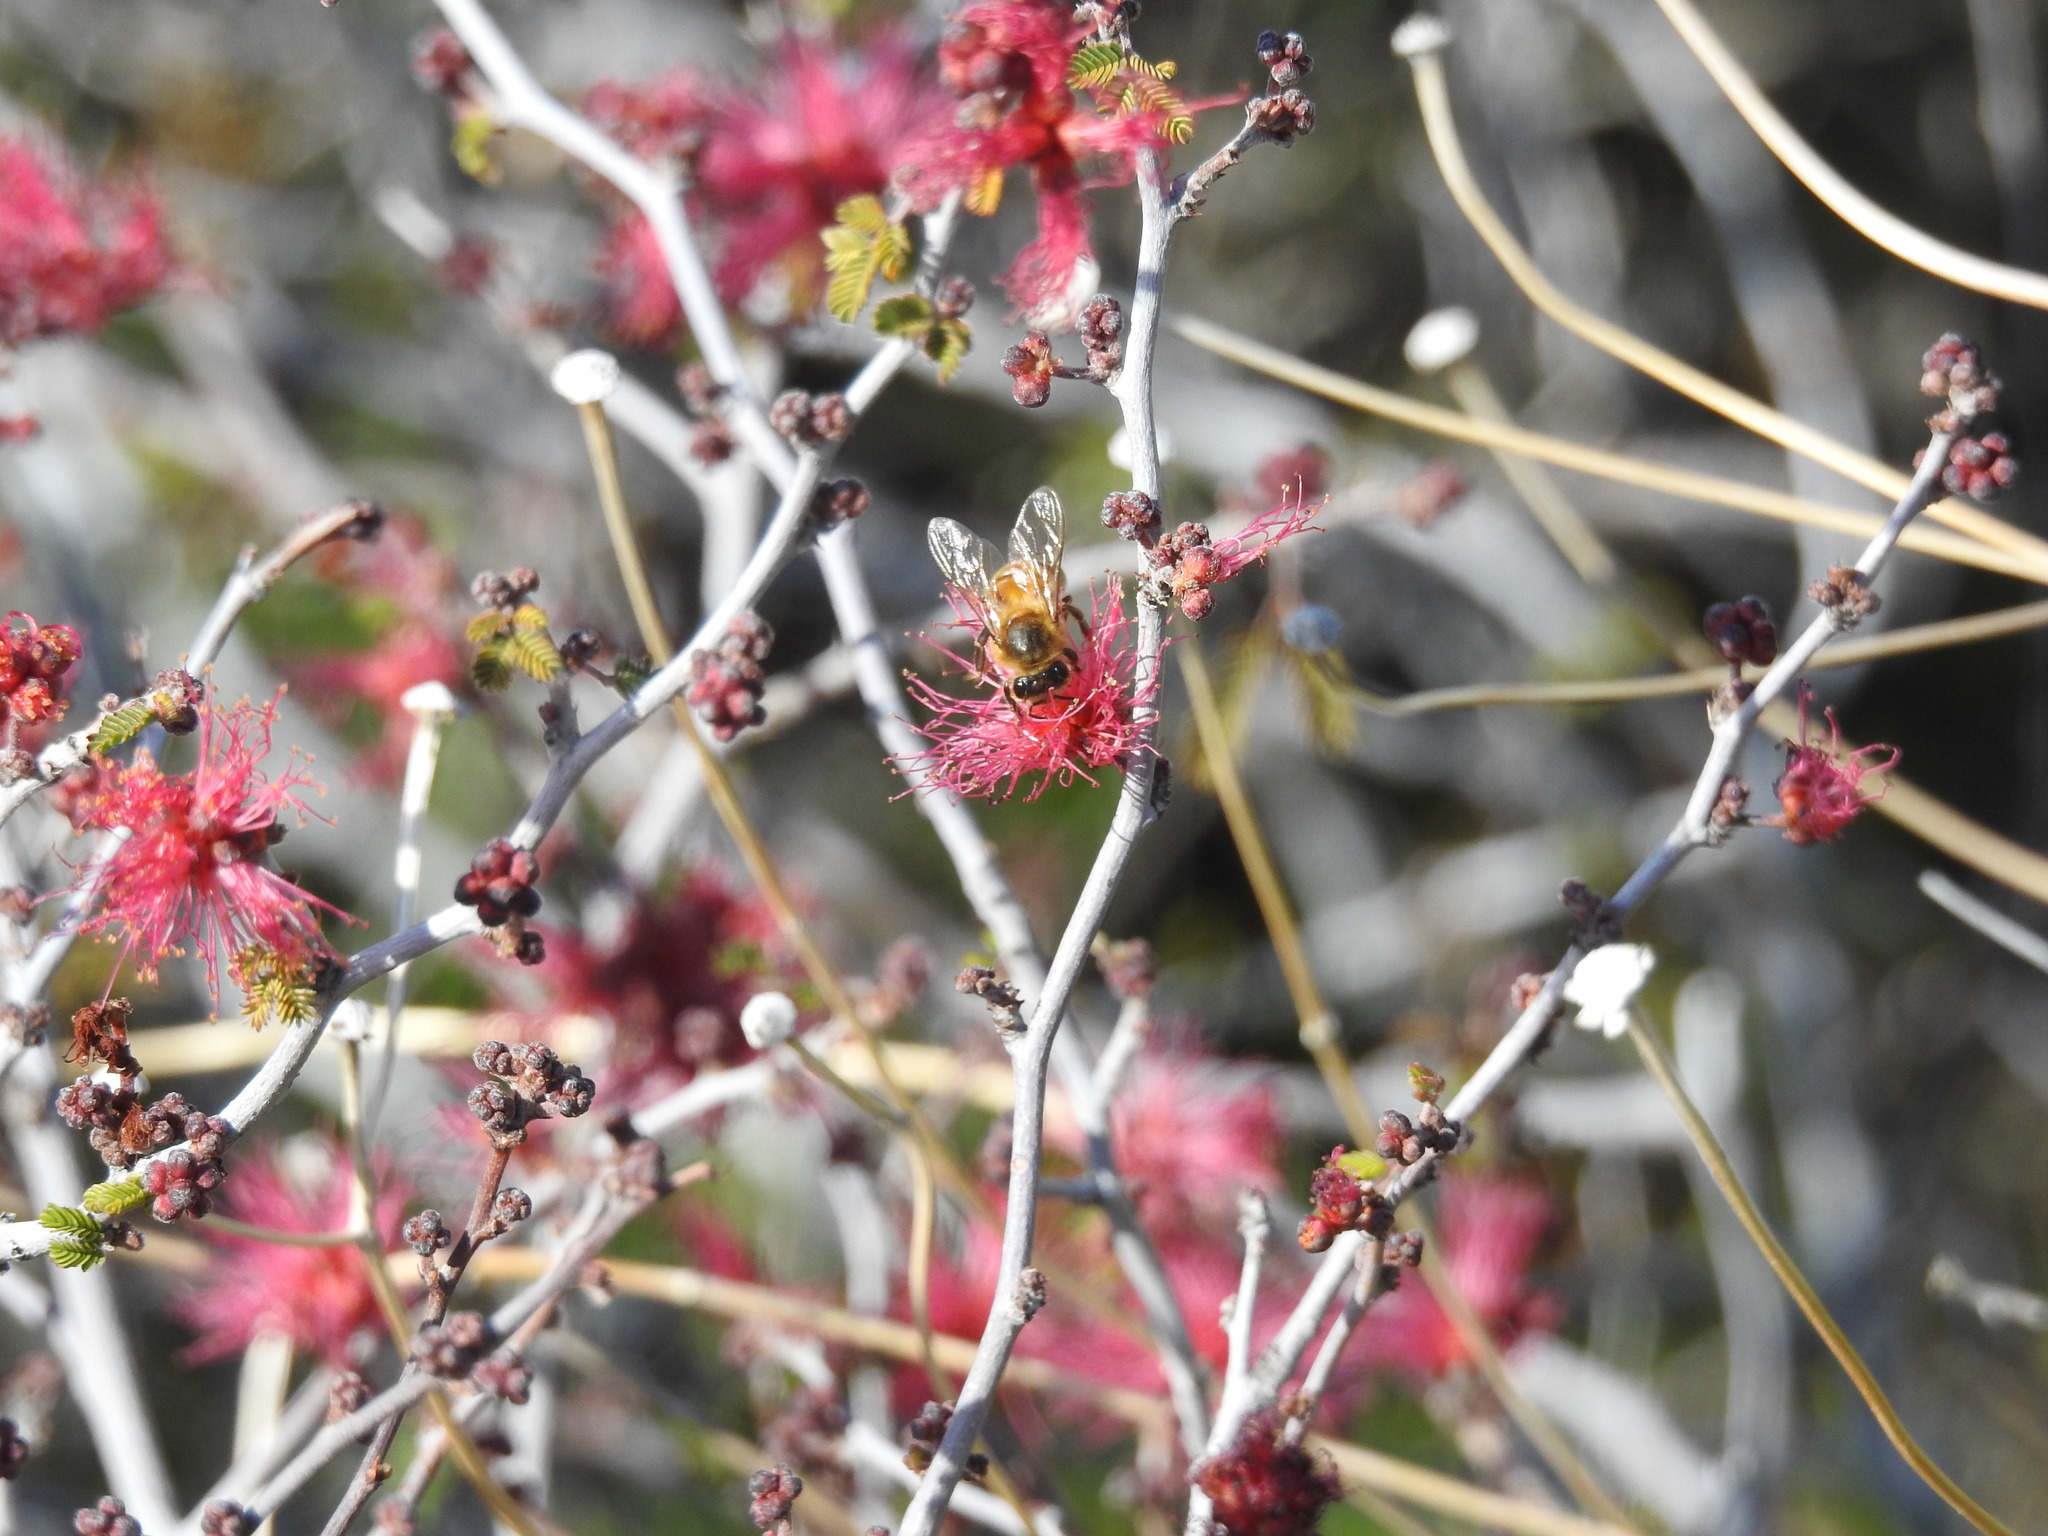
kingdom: Animalia
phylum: Arthropoda
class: Insecta
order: Hymenoptera
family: Apidae
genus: Apis
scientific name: Apis mellifera
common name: Honey bee
